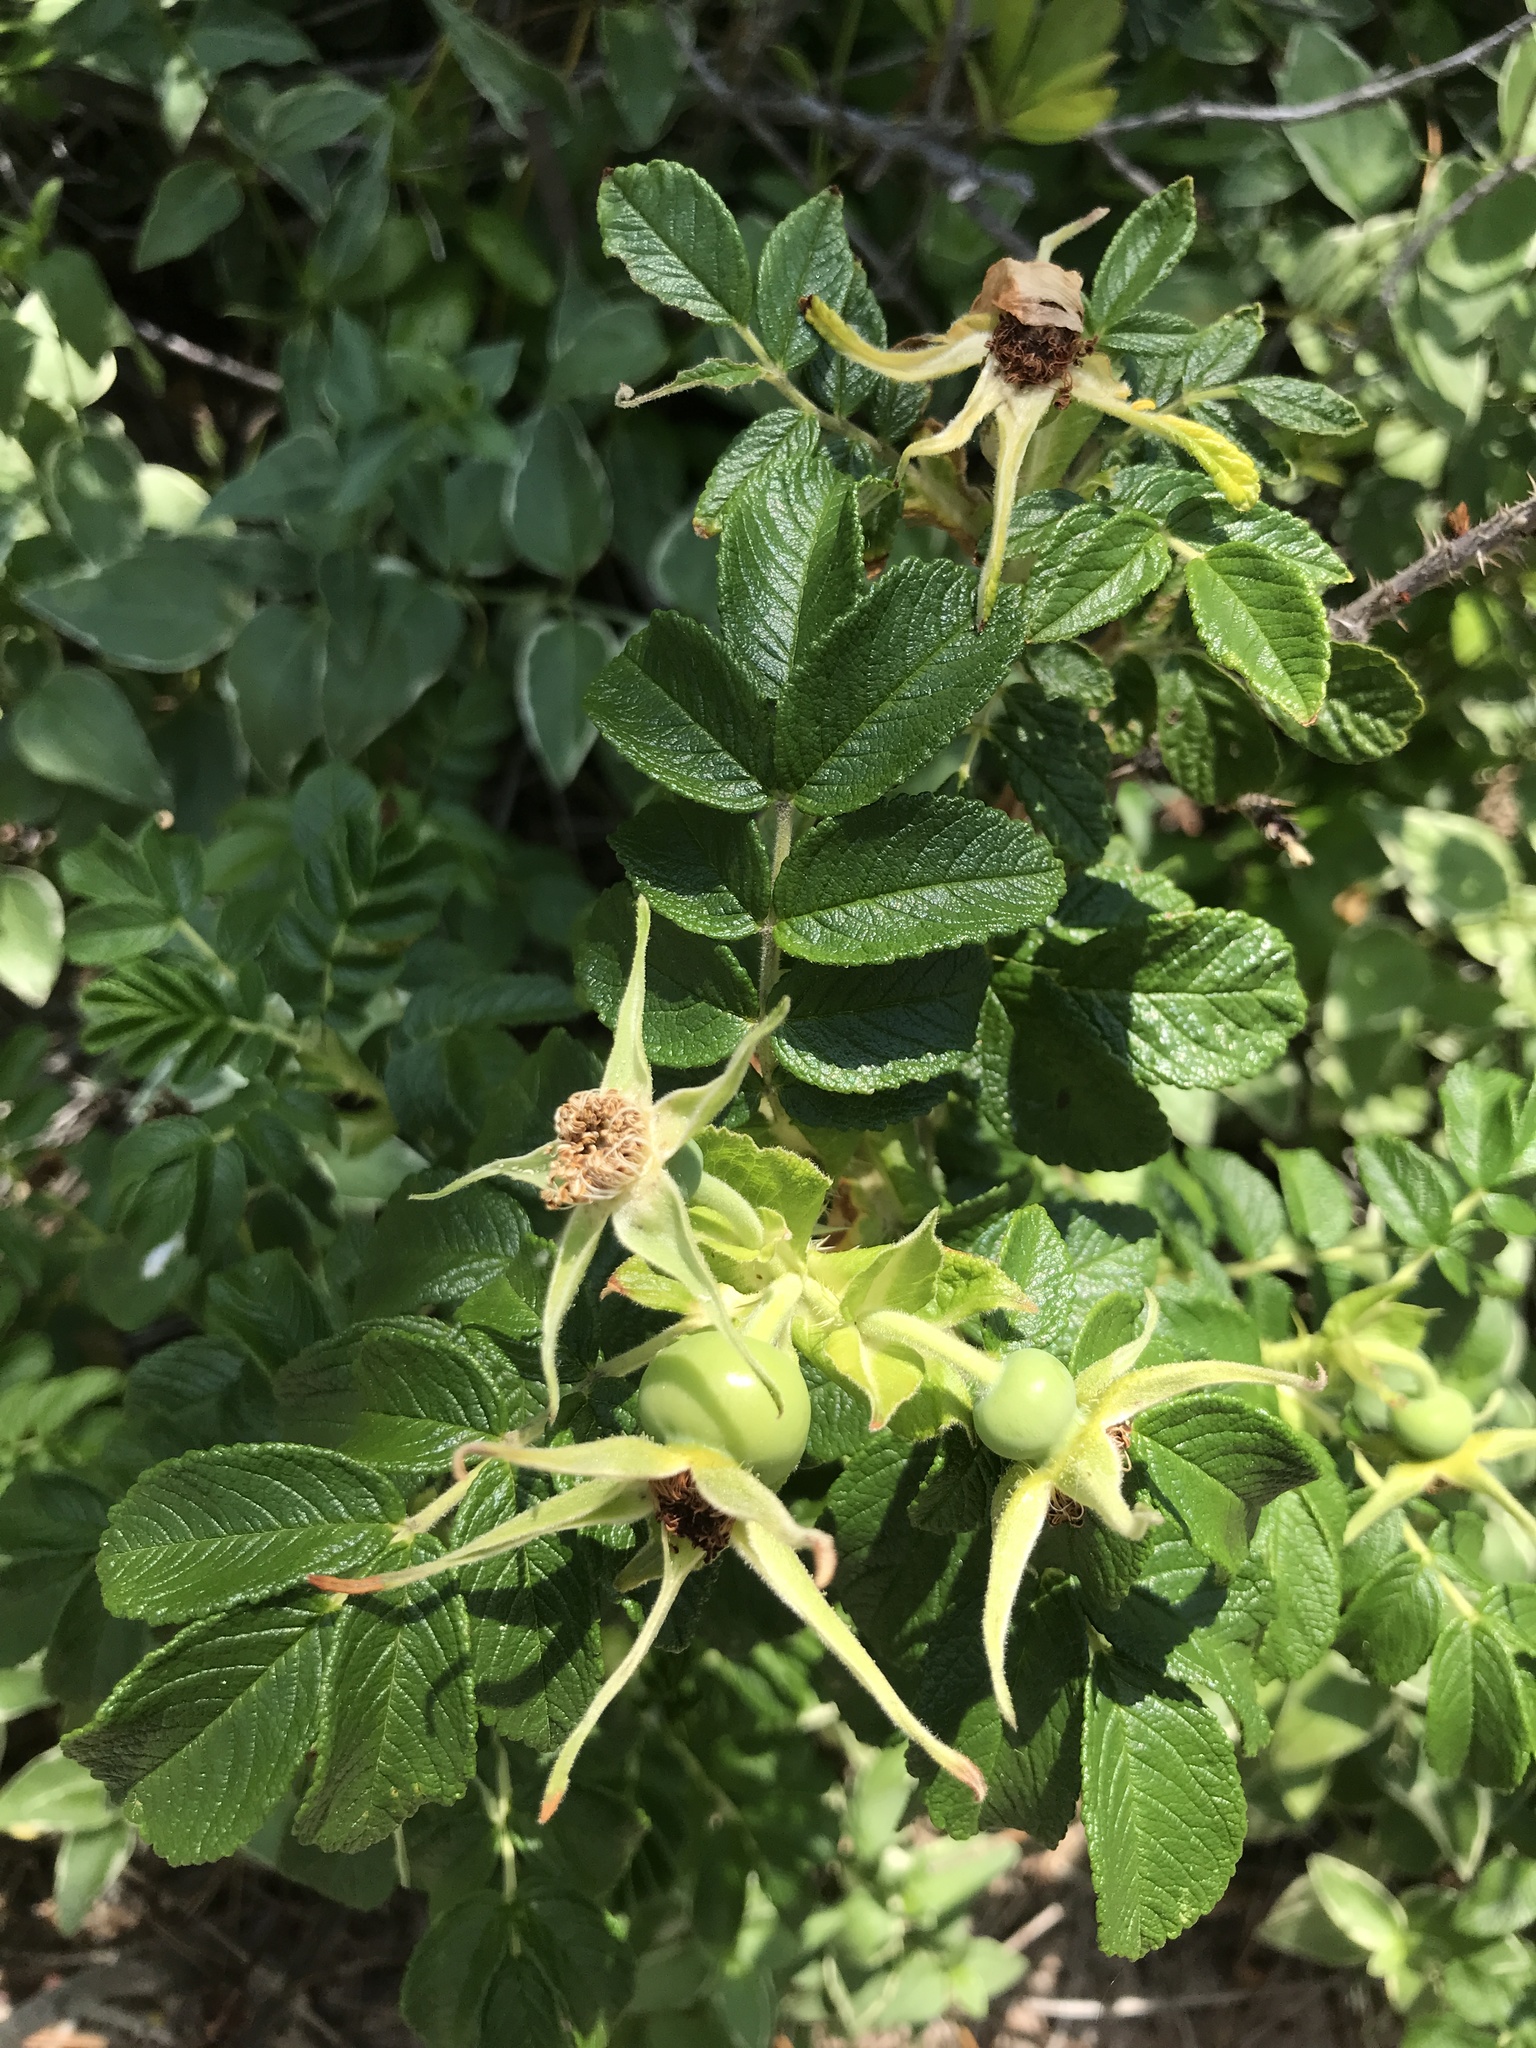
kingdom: Plantae
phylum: Tracheophyta
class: Magnoliopsida
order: Rosales
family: Rosaceae
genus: Rosa
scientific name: Rosa rugosa
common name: Japanese rose
